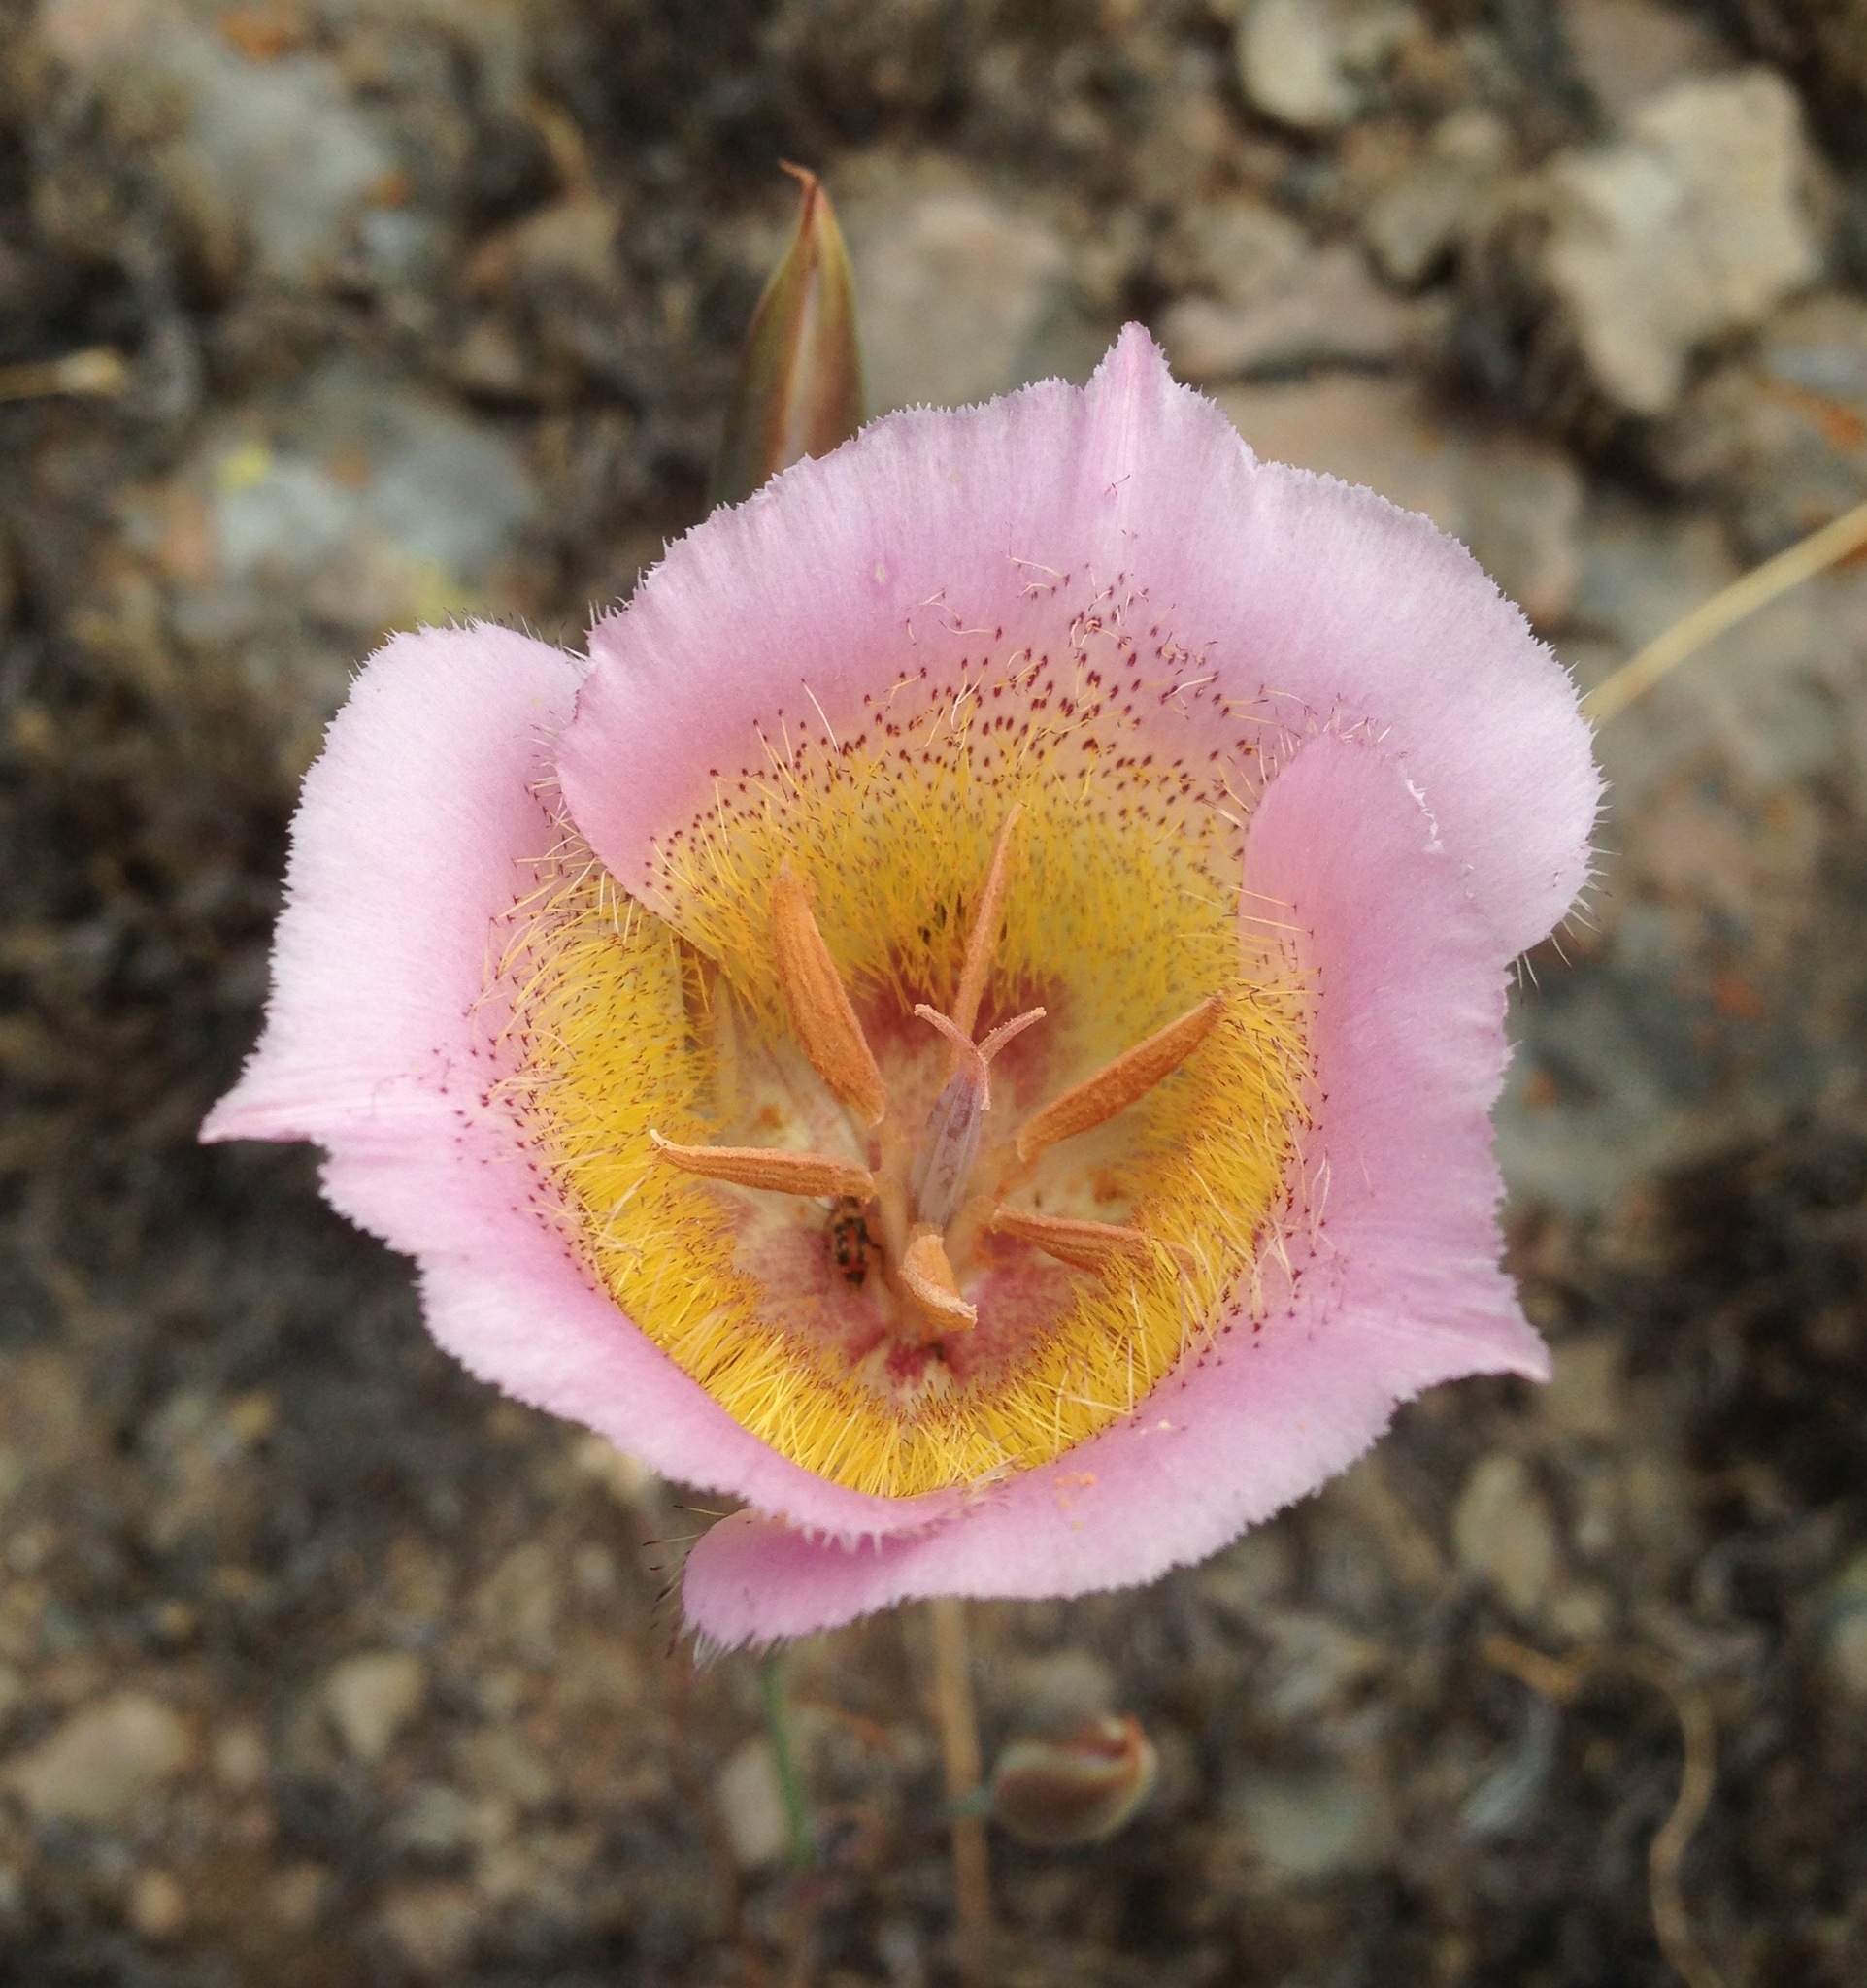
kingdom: Plantae
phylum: Tracheophyta
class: Liliopsida
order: Liliales
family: Liliaceae
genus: Calochortus
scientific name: Calochortus plummerae
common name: Plummer's mariposa-lily
